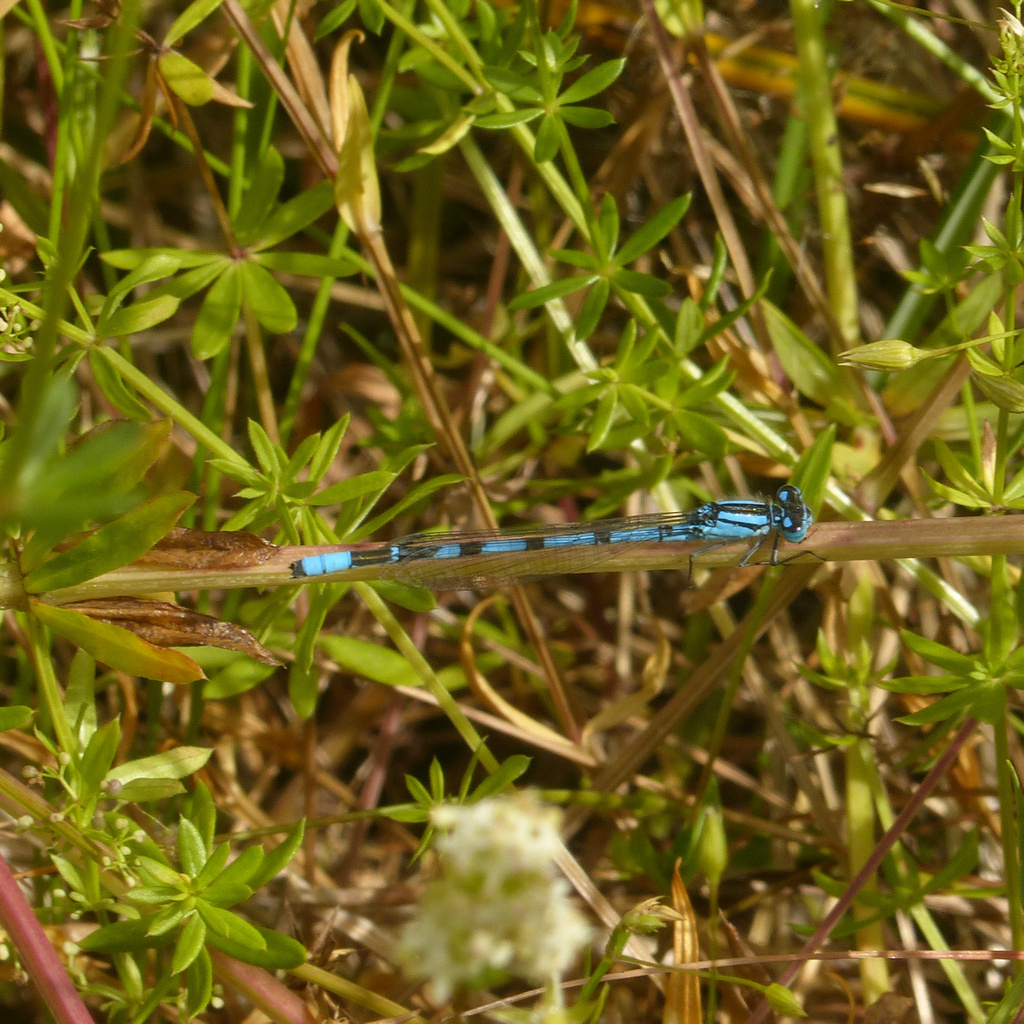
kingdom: Animalia
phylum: Arthropoda
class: Insecta
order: Odonata
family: Coenagrionidae
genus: Enallagma
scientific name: Enallagma cyathigerum
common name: Common blue damselfly
